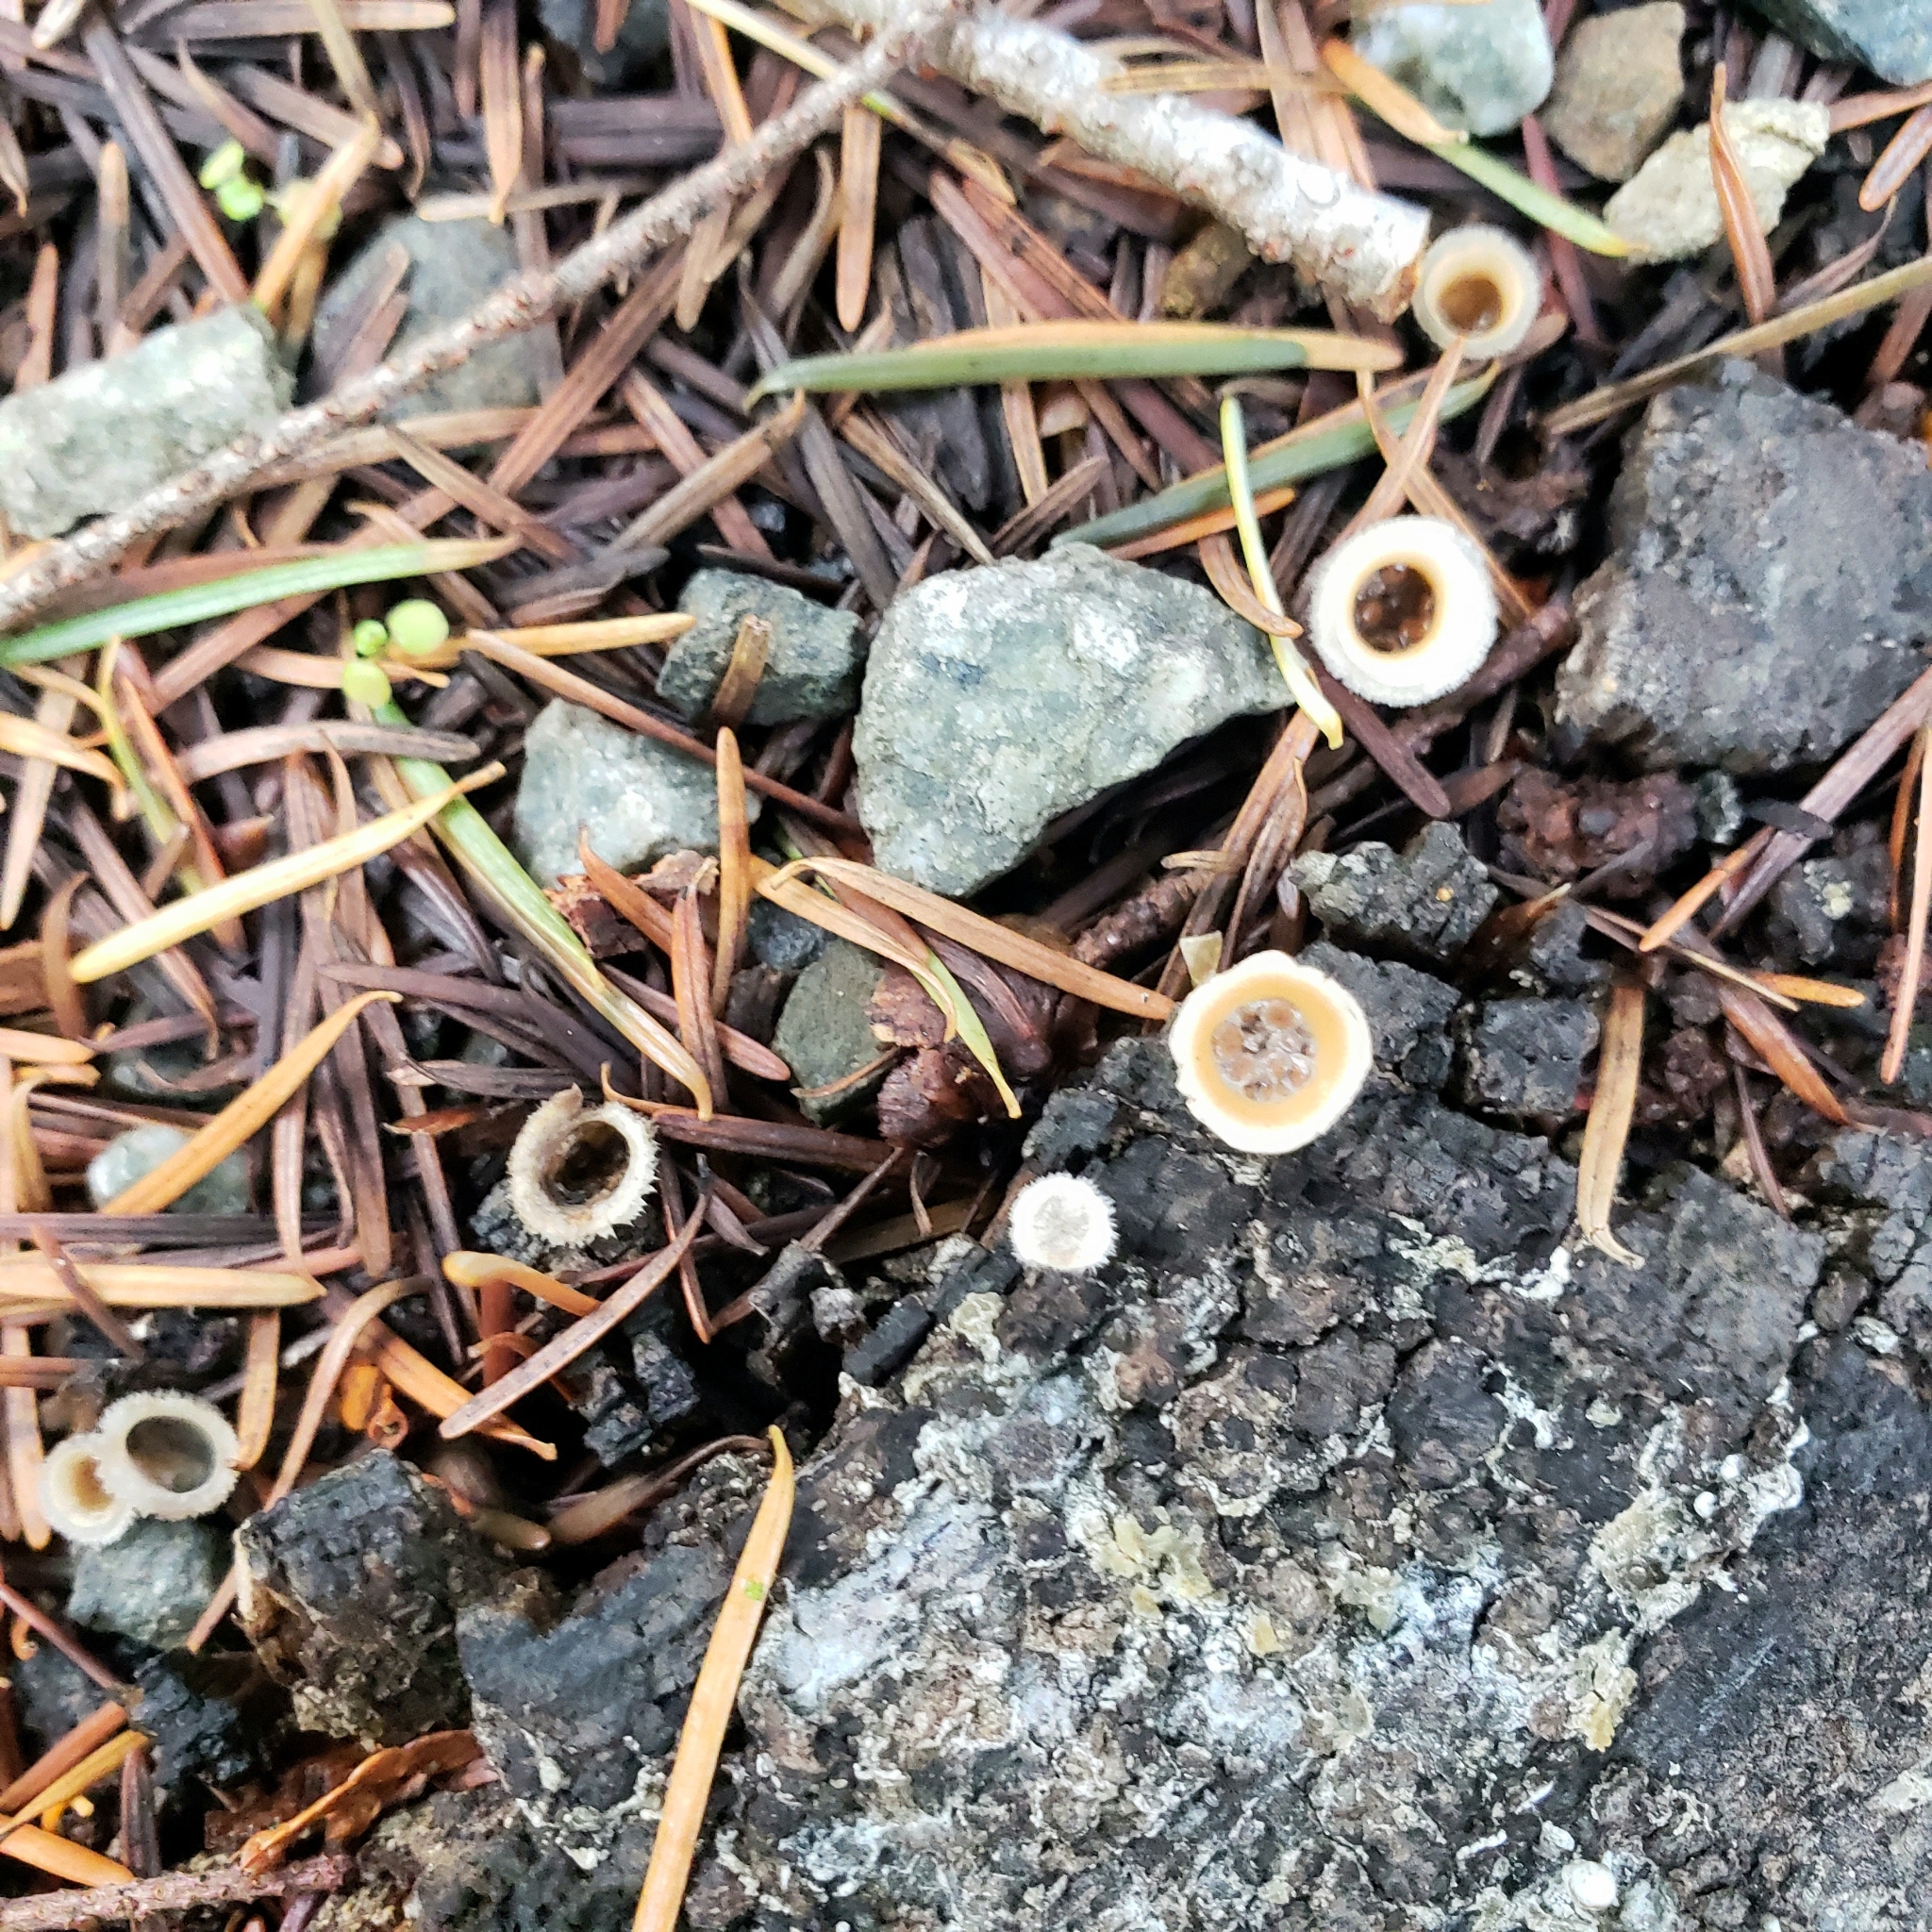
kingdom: Fungi
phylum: Basidiomycota
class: Agaricomycetes
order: Agaricales
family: Agaricaceae
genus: Nidula
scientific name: Nidula niveotomentosa
